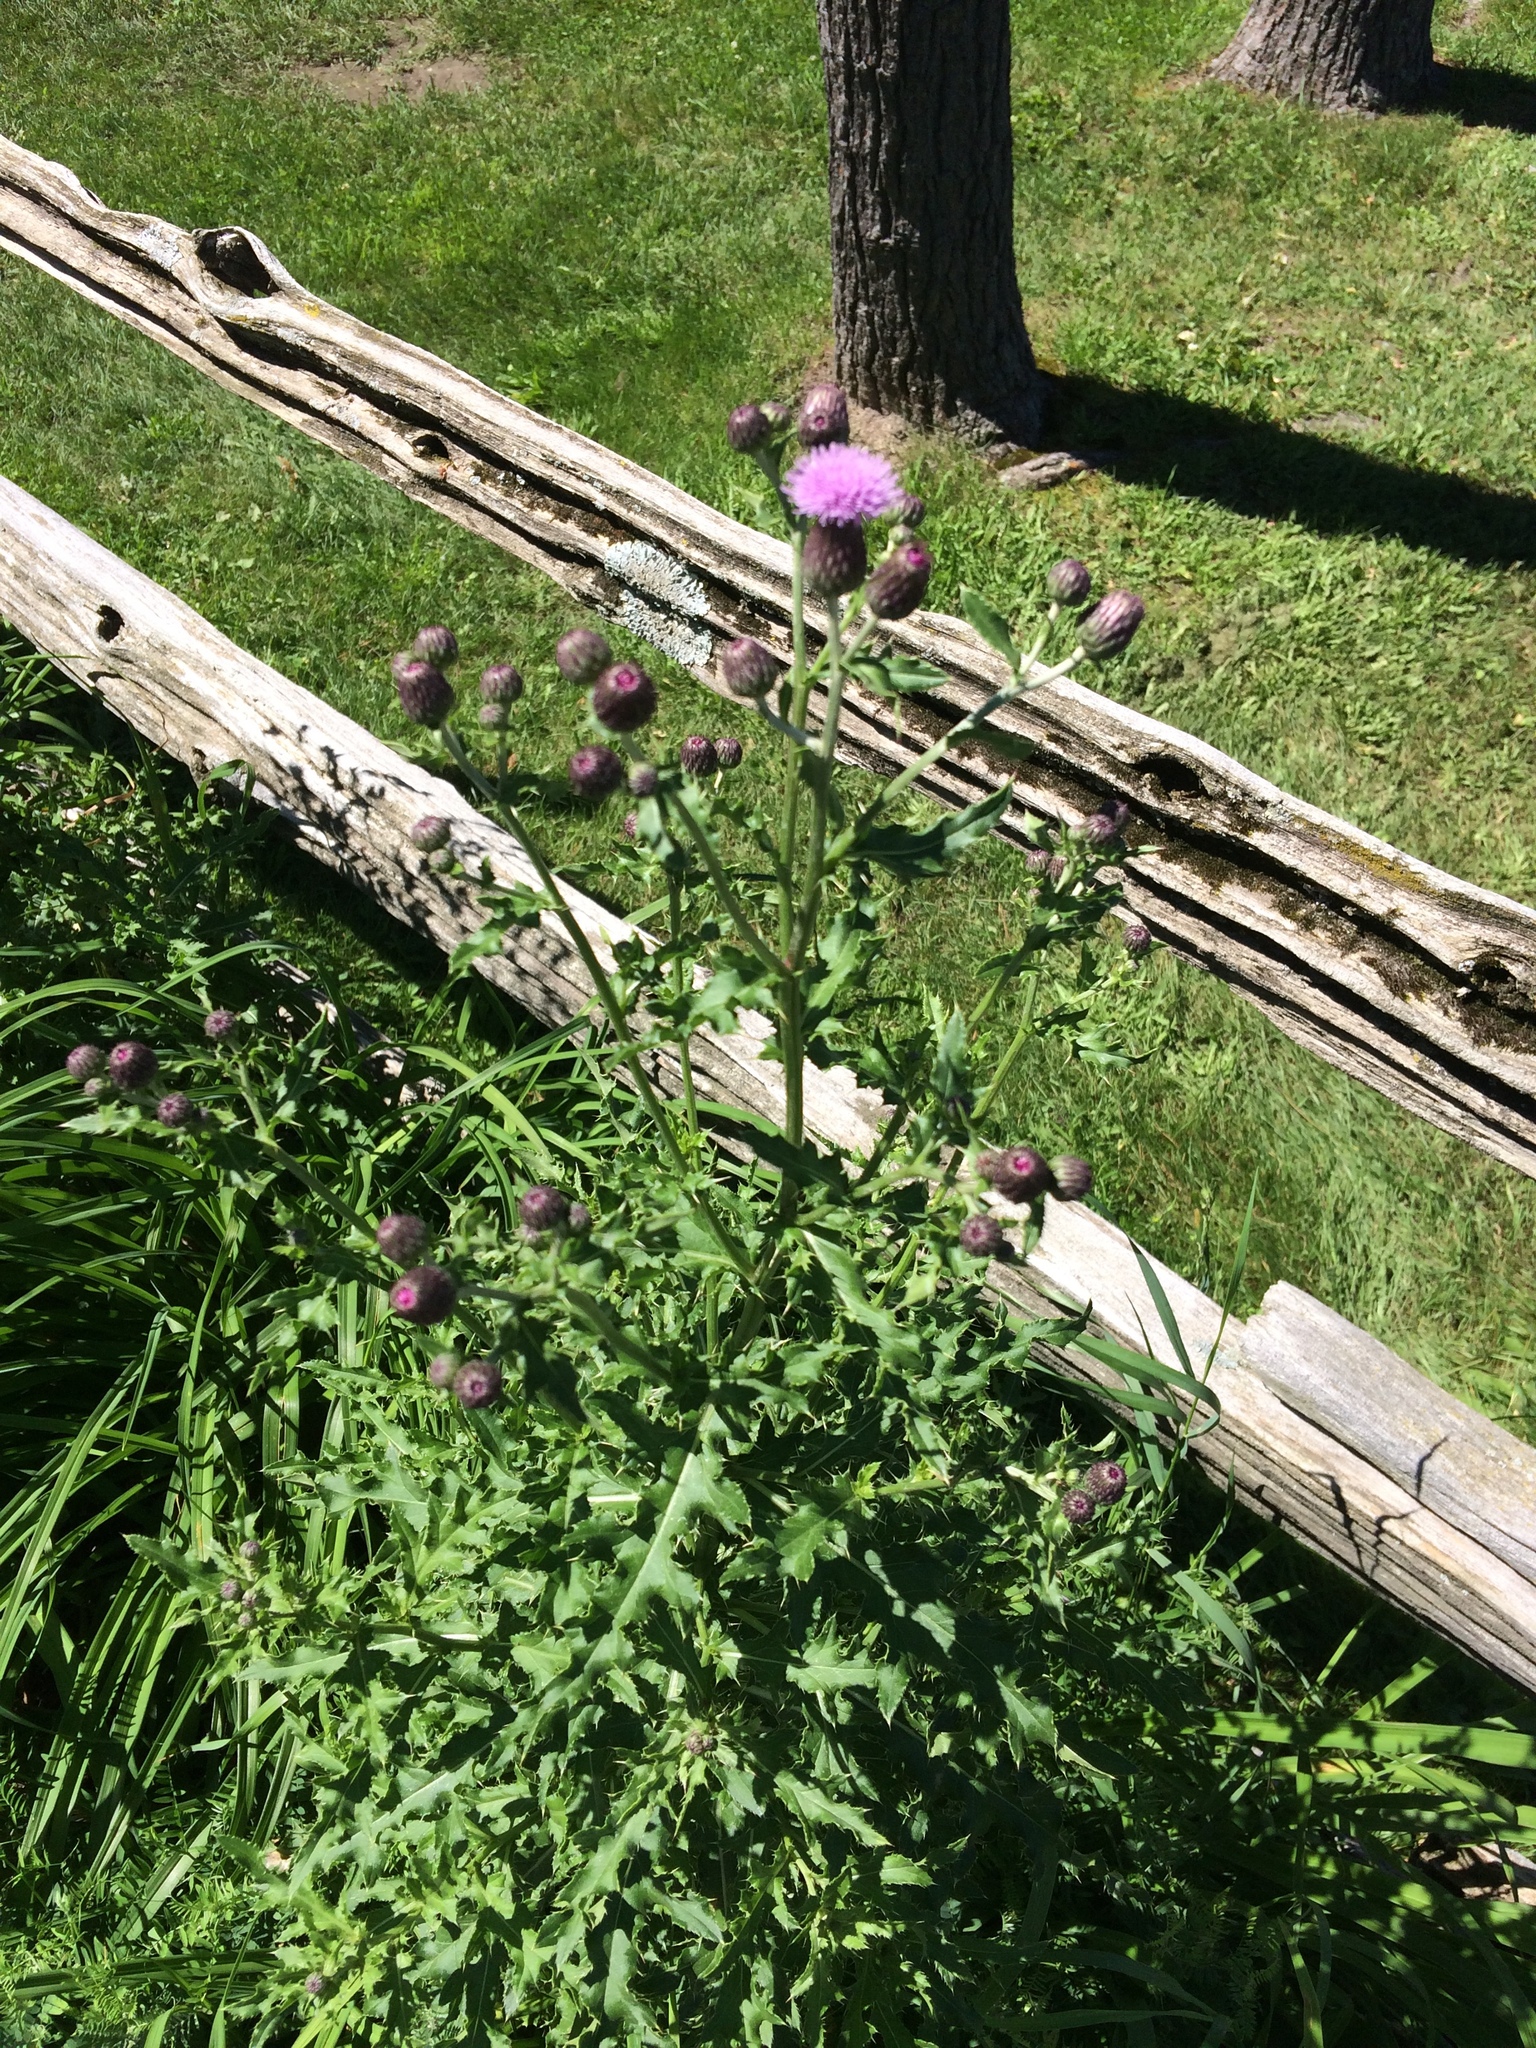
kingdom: Plantae
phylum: Tracheophyta
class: Magnoliopsida
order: Asterales
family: Asteraceae
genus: Cirsium
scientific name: Cirsium arvense
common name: Creeping thistle
